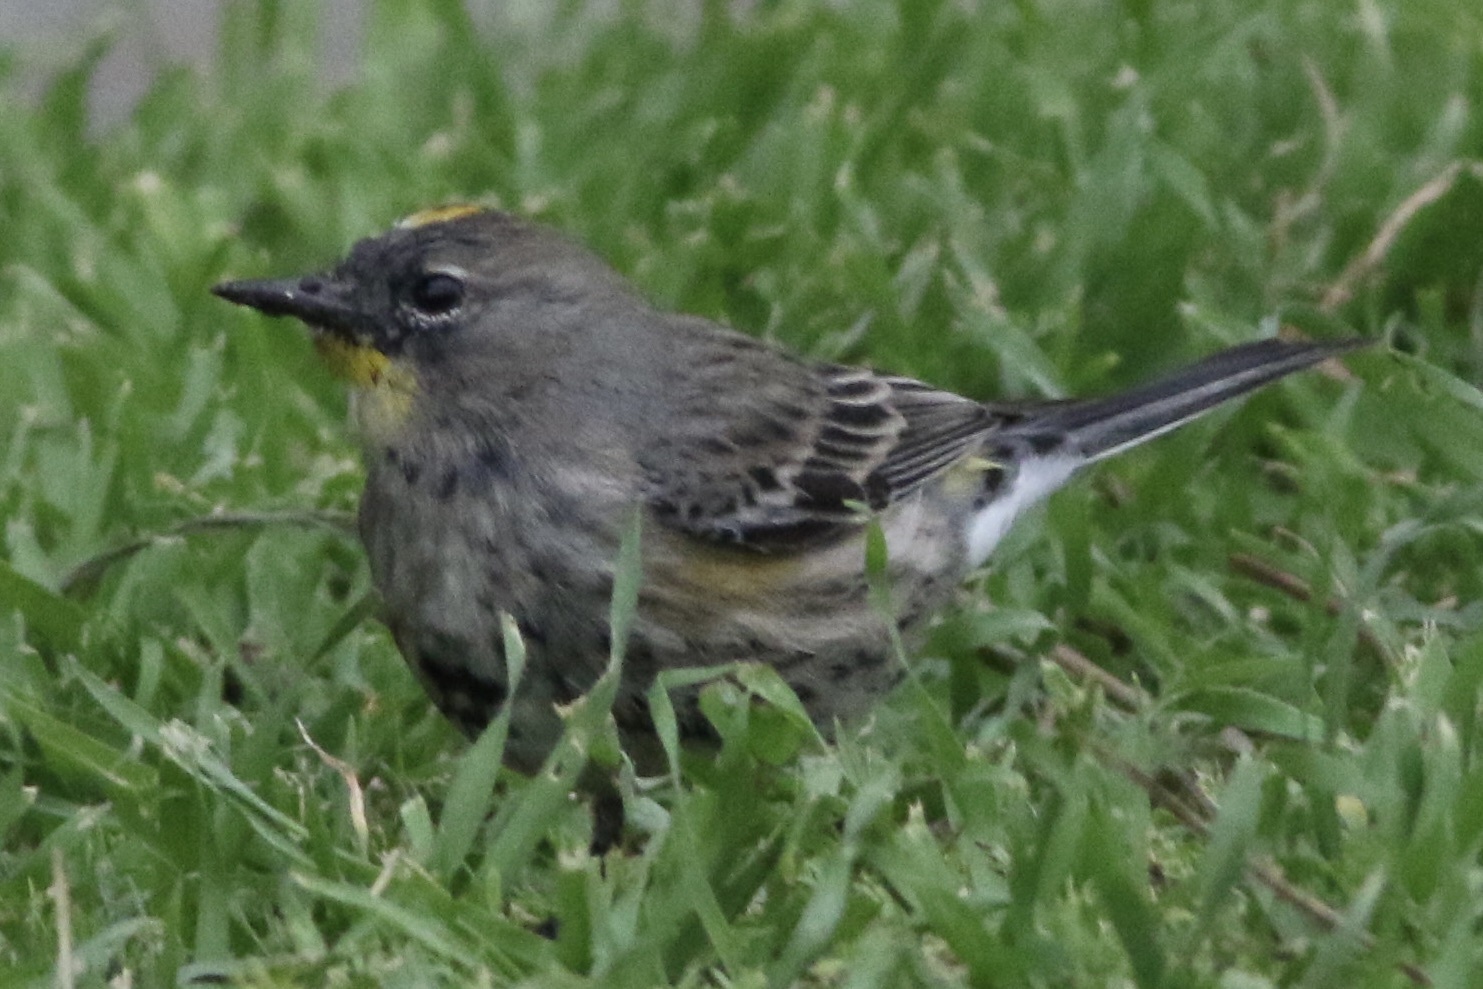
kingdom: Animalia
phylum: Chordata
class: Aves
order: Passeriformes
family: Parulidae
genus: Setophaga
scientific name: Setophaga coronata
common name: Myrtle warbler
